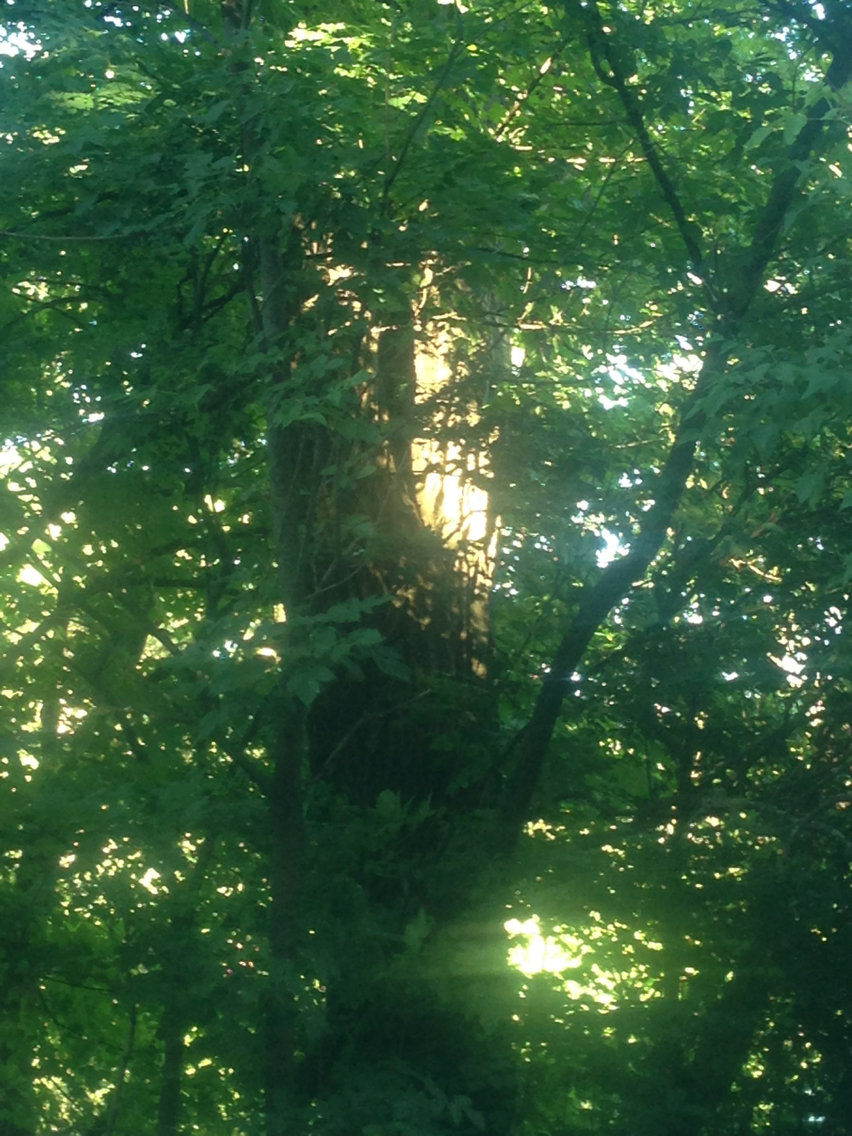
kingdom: Plantae
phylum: Tracheophyta
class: Magnoliopsida
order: Fabales
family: Fabaceae
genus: Robinia
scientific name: Robinia pseudoacacia
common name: Black locust
